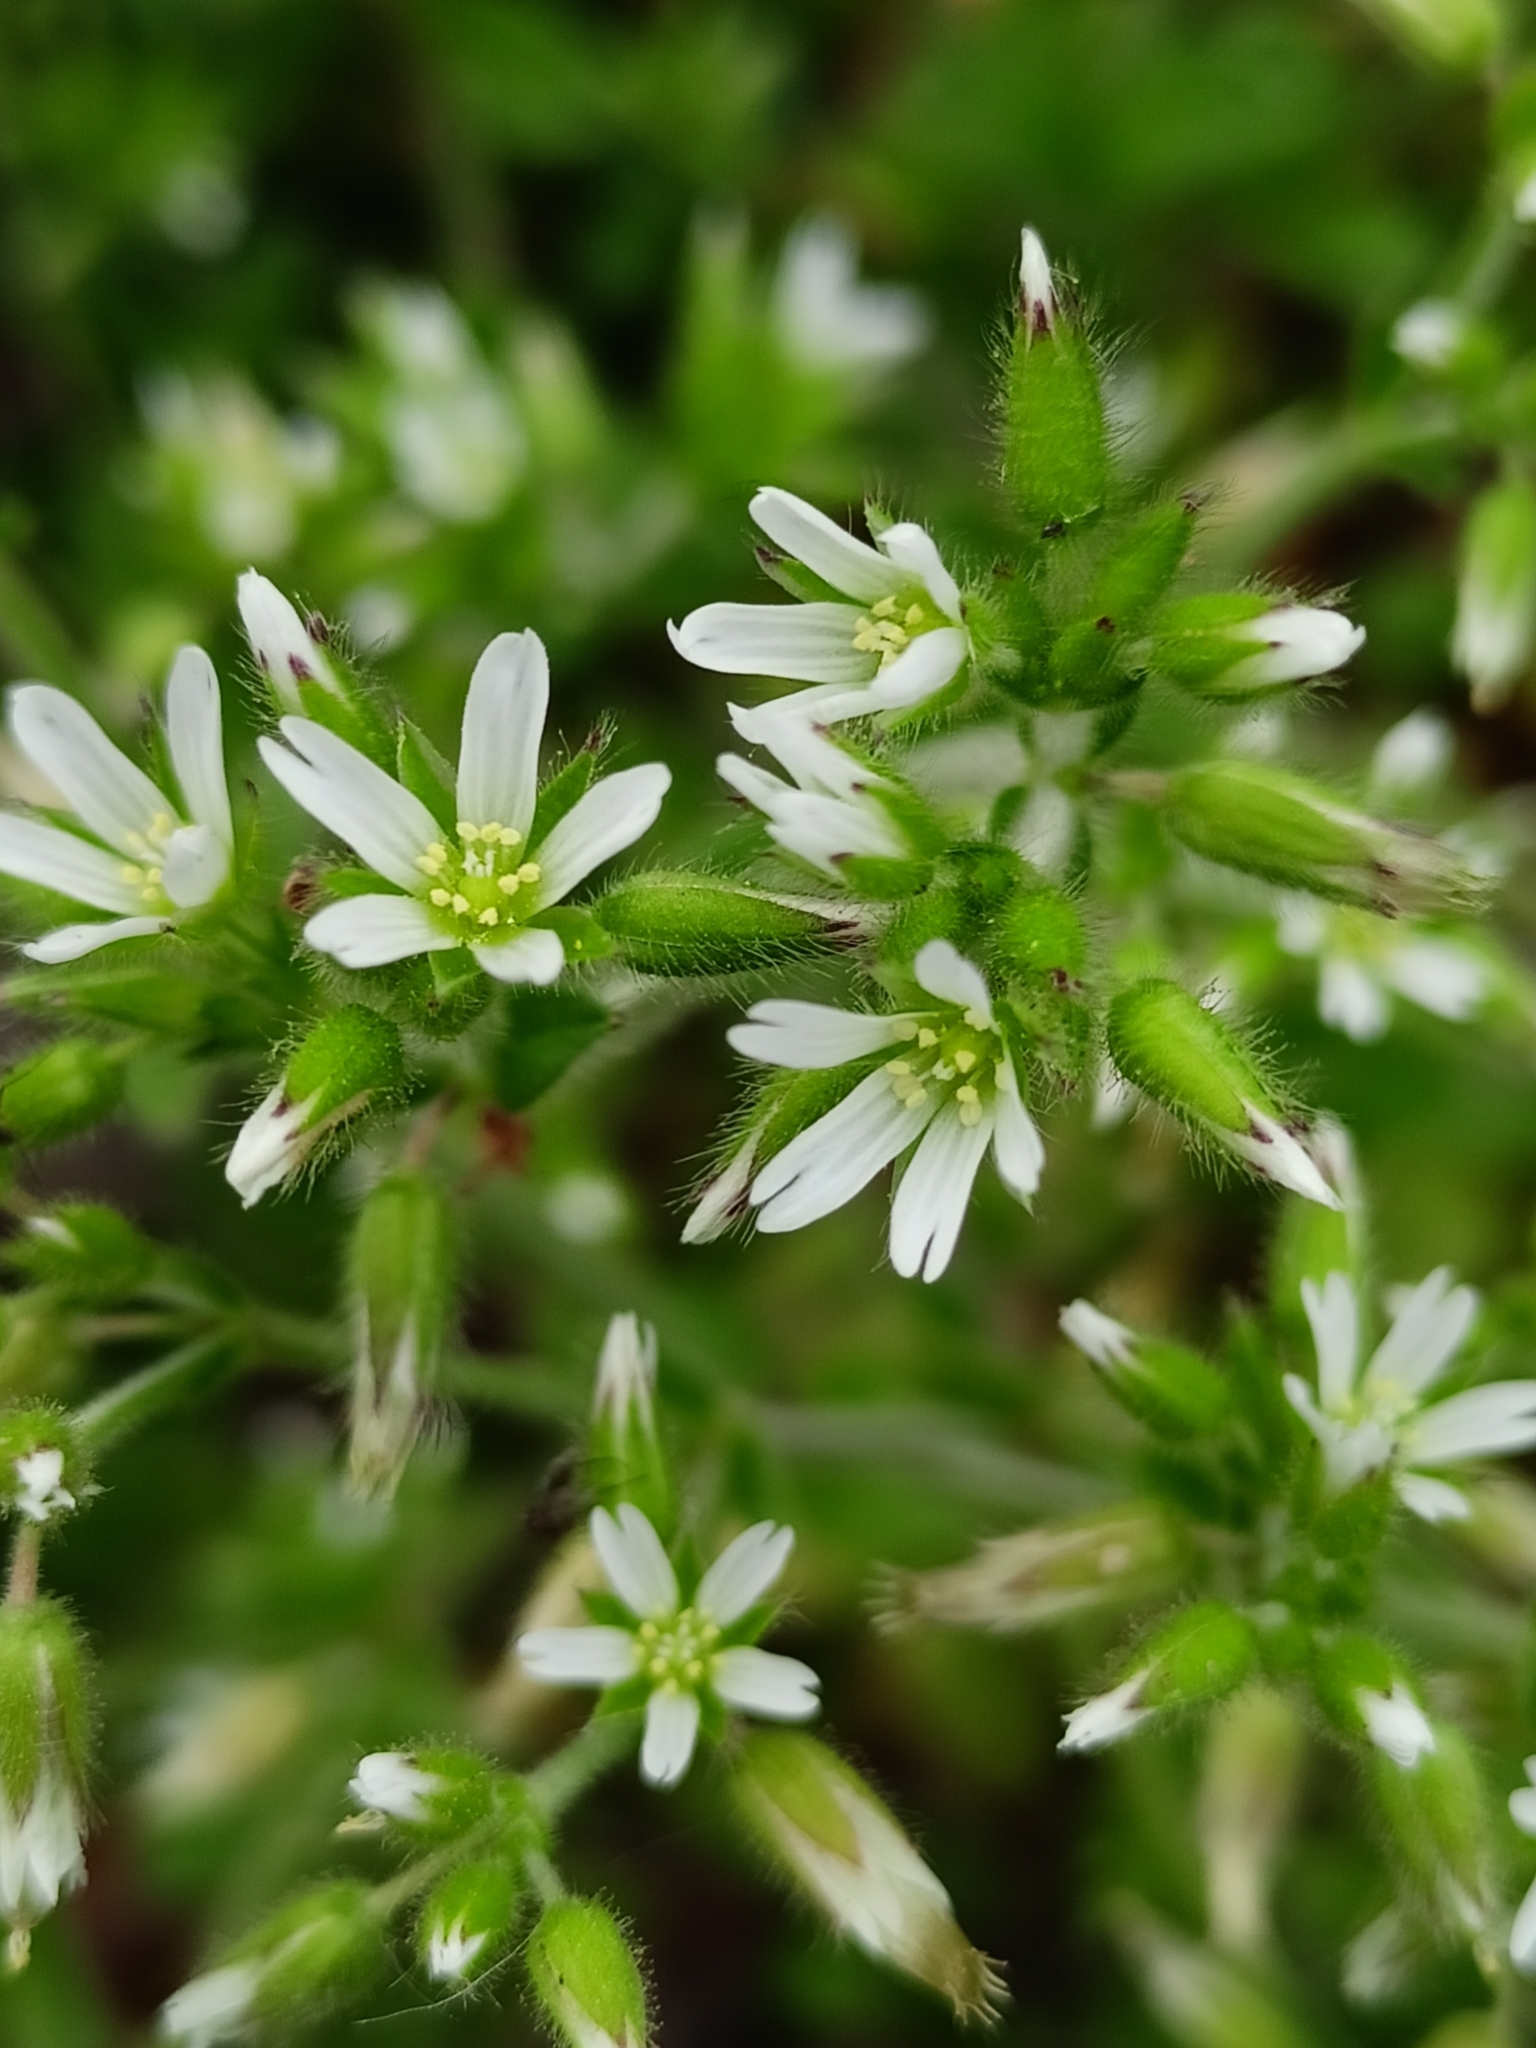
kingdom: Plantae
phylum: Tracheophyta
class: Magnoliopsida
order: Caryophyllales
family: Caryophyllaceae
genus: Cerastium
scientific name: Cerastium glomeratum
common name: Sticky chickweed
